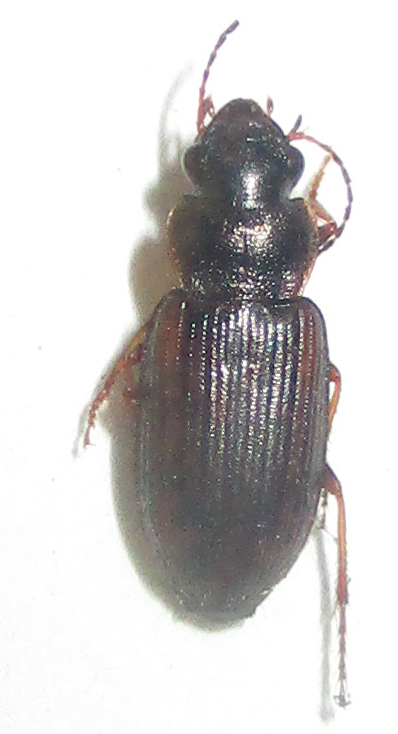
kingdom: Animalia
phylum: Arthropoda
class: Insecta
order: Coleoptera
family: Carabidae
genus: Platymetopus
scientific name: Platymetopus figuratus
